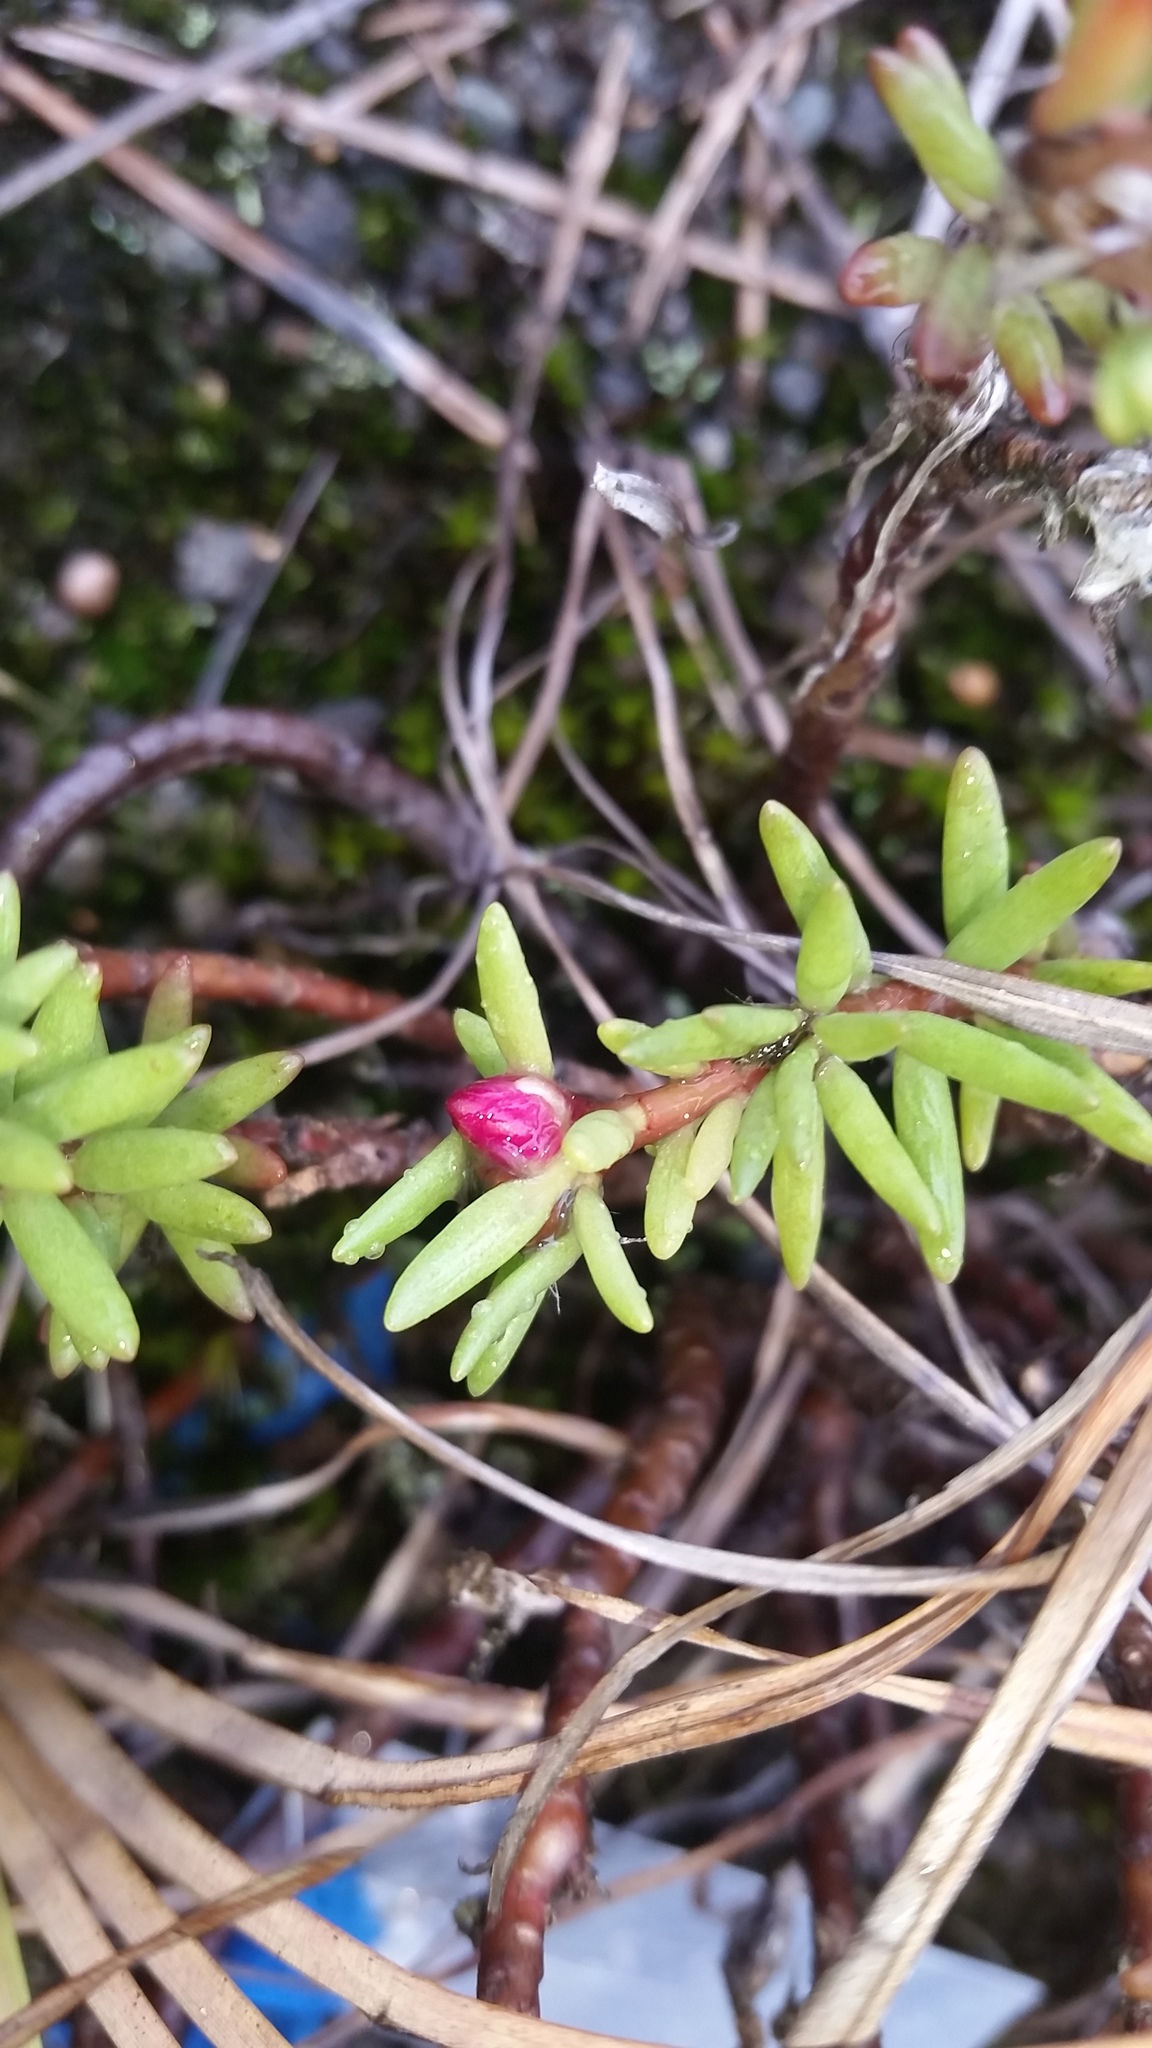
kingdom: Plantae
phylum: Tracheophyta
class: Magnoliopsida
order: Caryophyllales
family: Portulacaceae
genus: Portulaca
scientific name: Portulaca sclerocarpa
